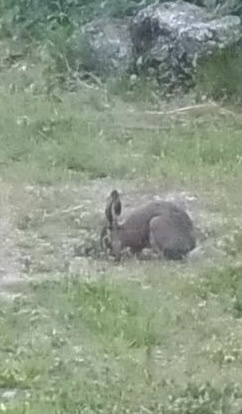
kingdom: Animalia
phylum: Chordata
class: Mammalia
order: Lagomorpha
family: Leporidae
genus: Lepus
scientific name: Lepus europaeus
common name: European hare
